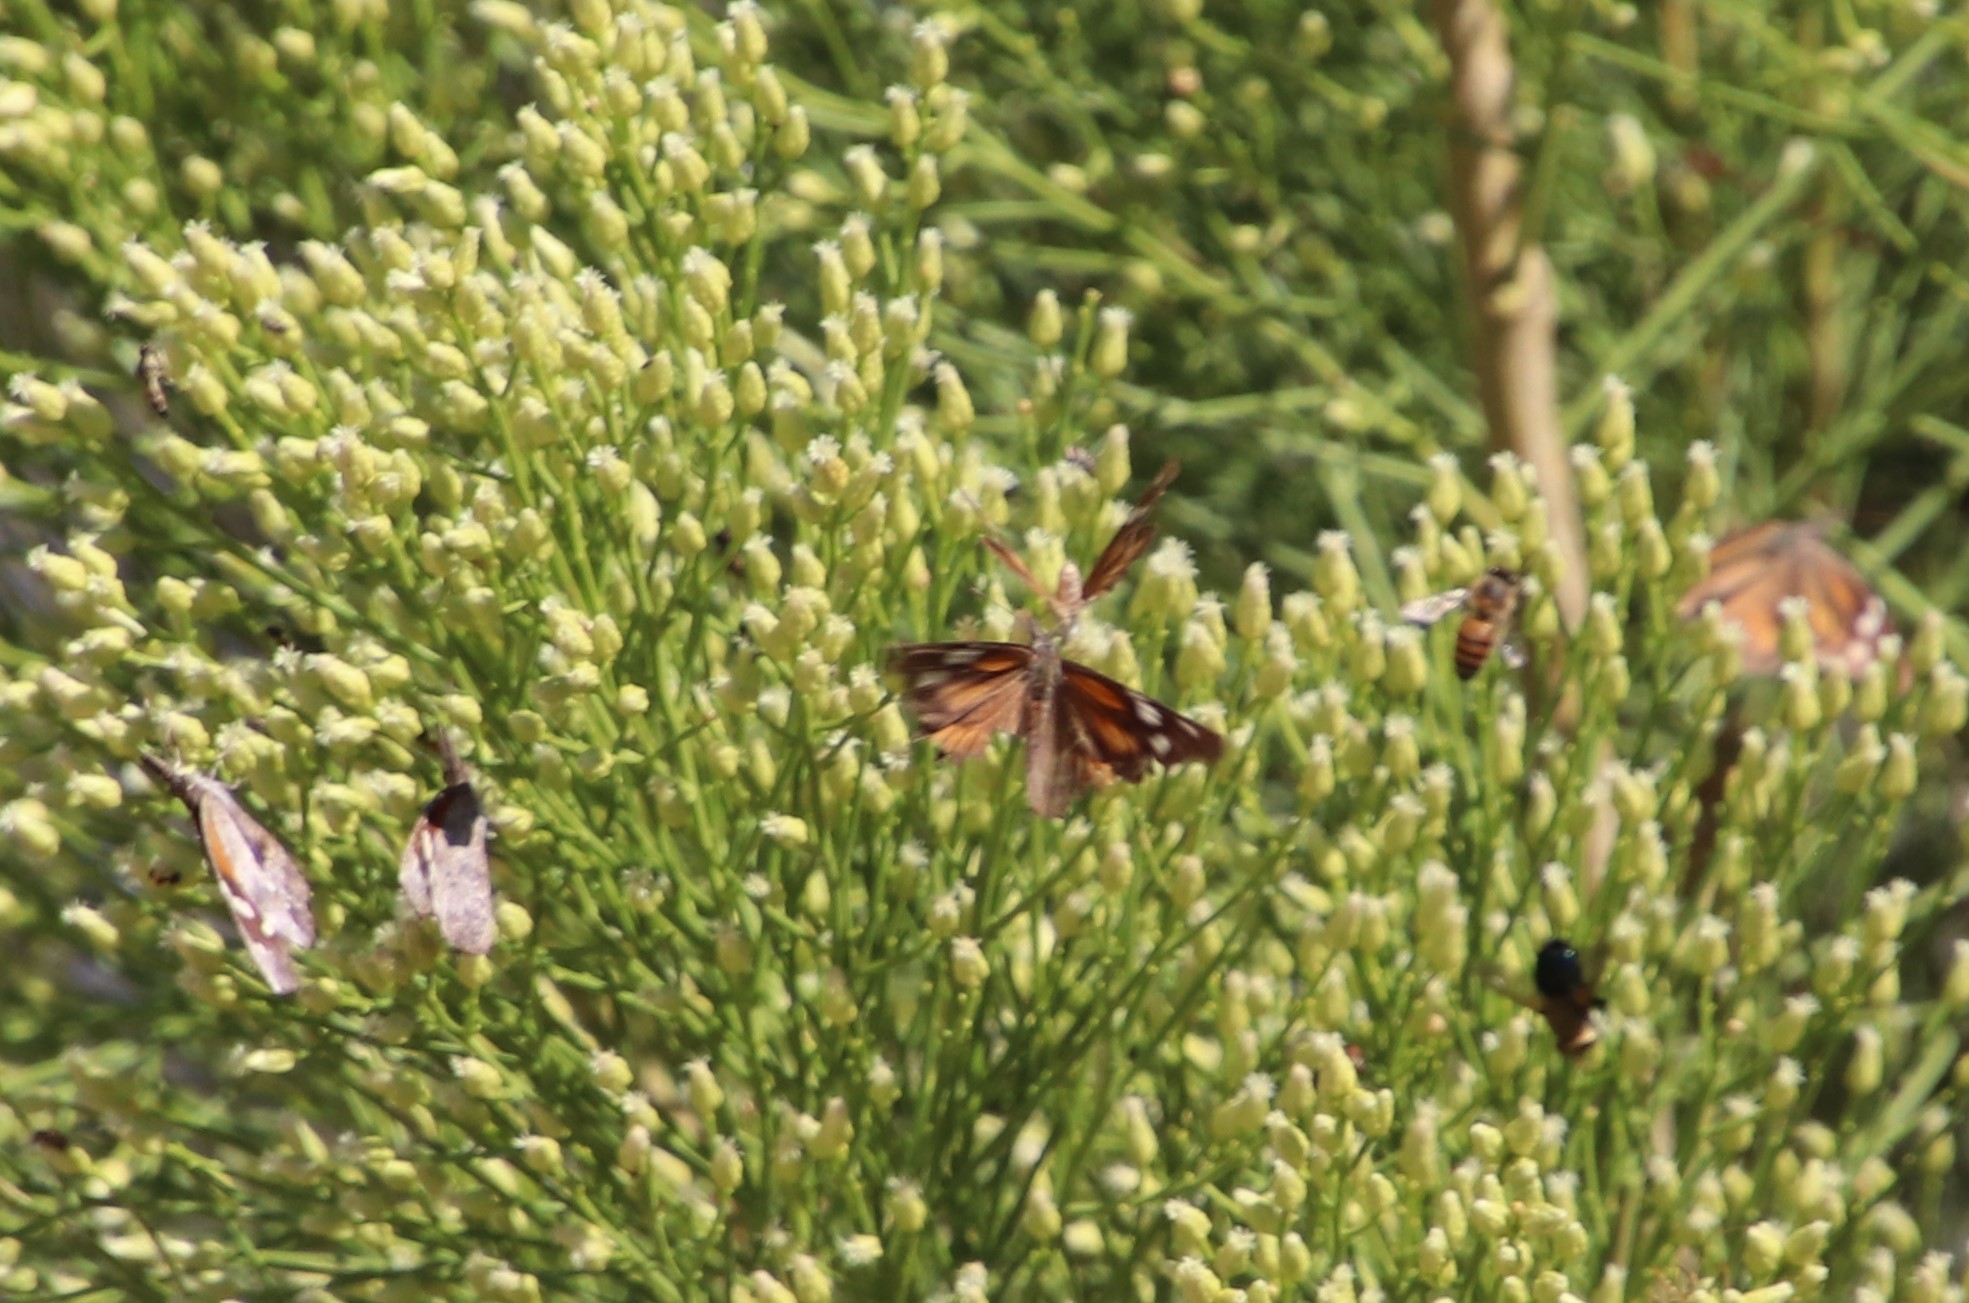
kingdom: Animalia
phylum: Arthropoda
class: Insecta
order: Lepidoptera
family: Nymphalidae
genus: Libytheana
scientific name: Libytheana carinenta
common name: American snout
